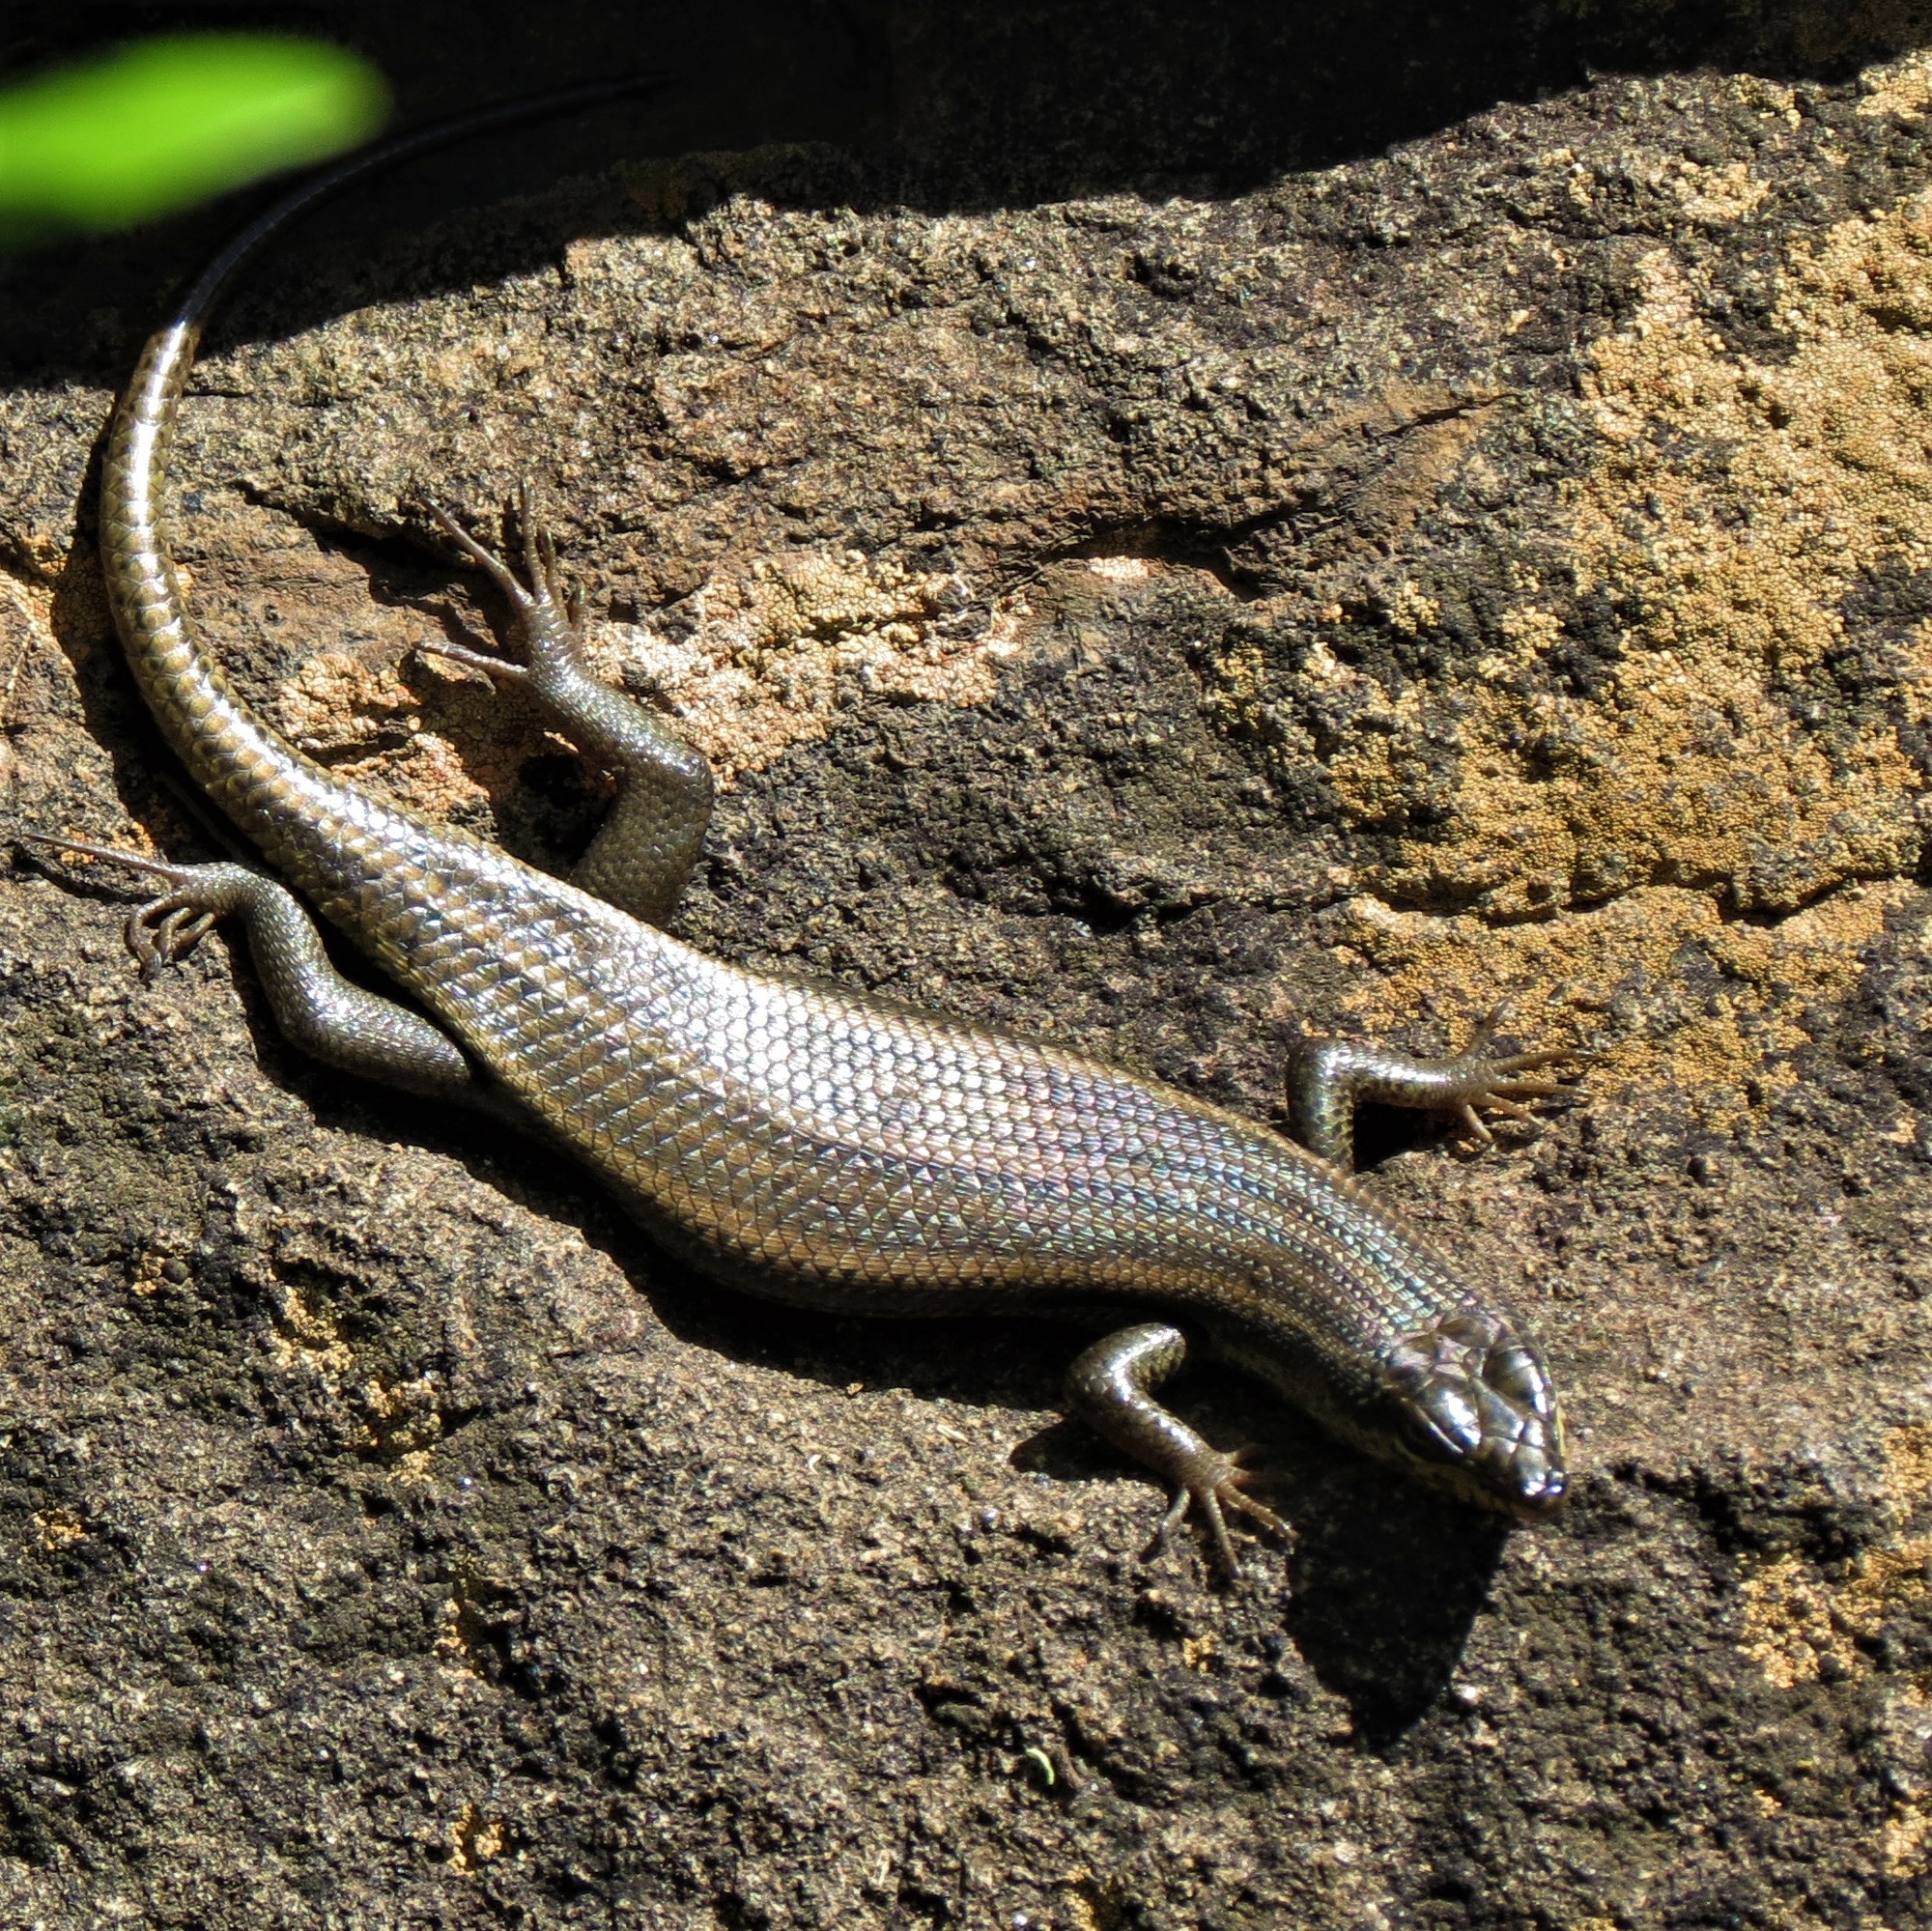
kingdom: Animalia
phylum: Chordata
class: Squamata
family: Scincidae
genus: Trachylepis
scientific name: Trachylepis sulcata
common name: Western rock skink
